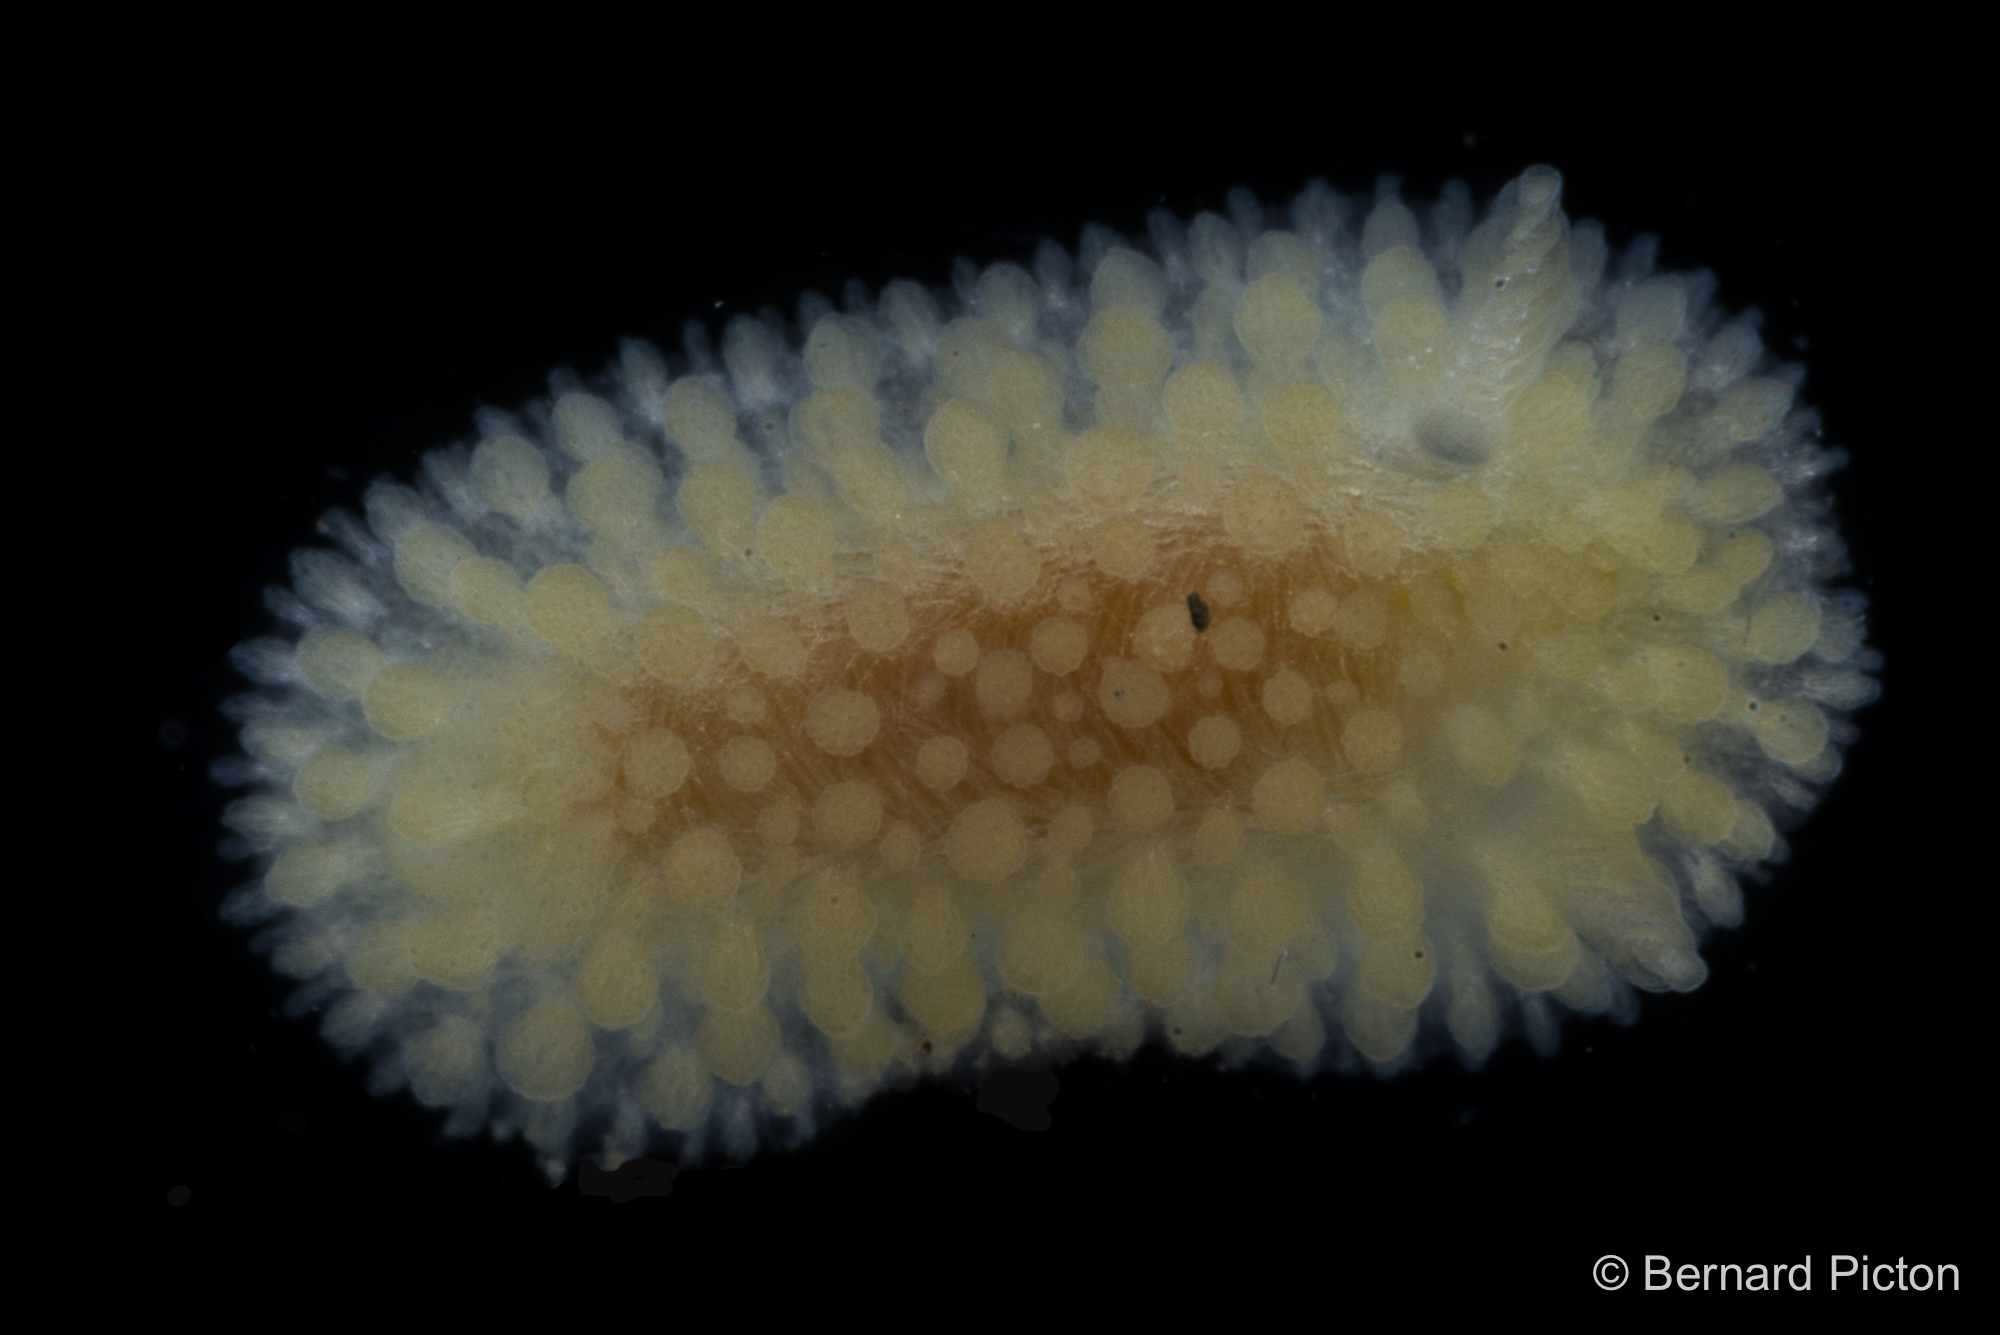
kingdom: Animalia
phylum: Mollusca
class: Gastropoda
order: Nudibranchia
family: Onchidorididae
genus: Onchidoris
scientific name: Onchidoris muricata
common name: Rough doris
